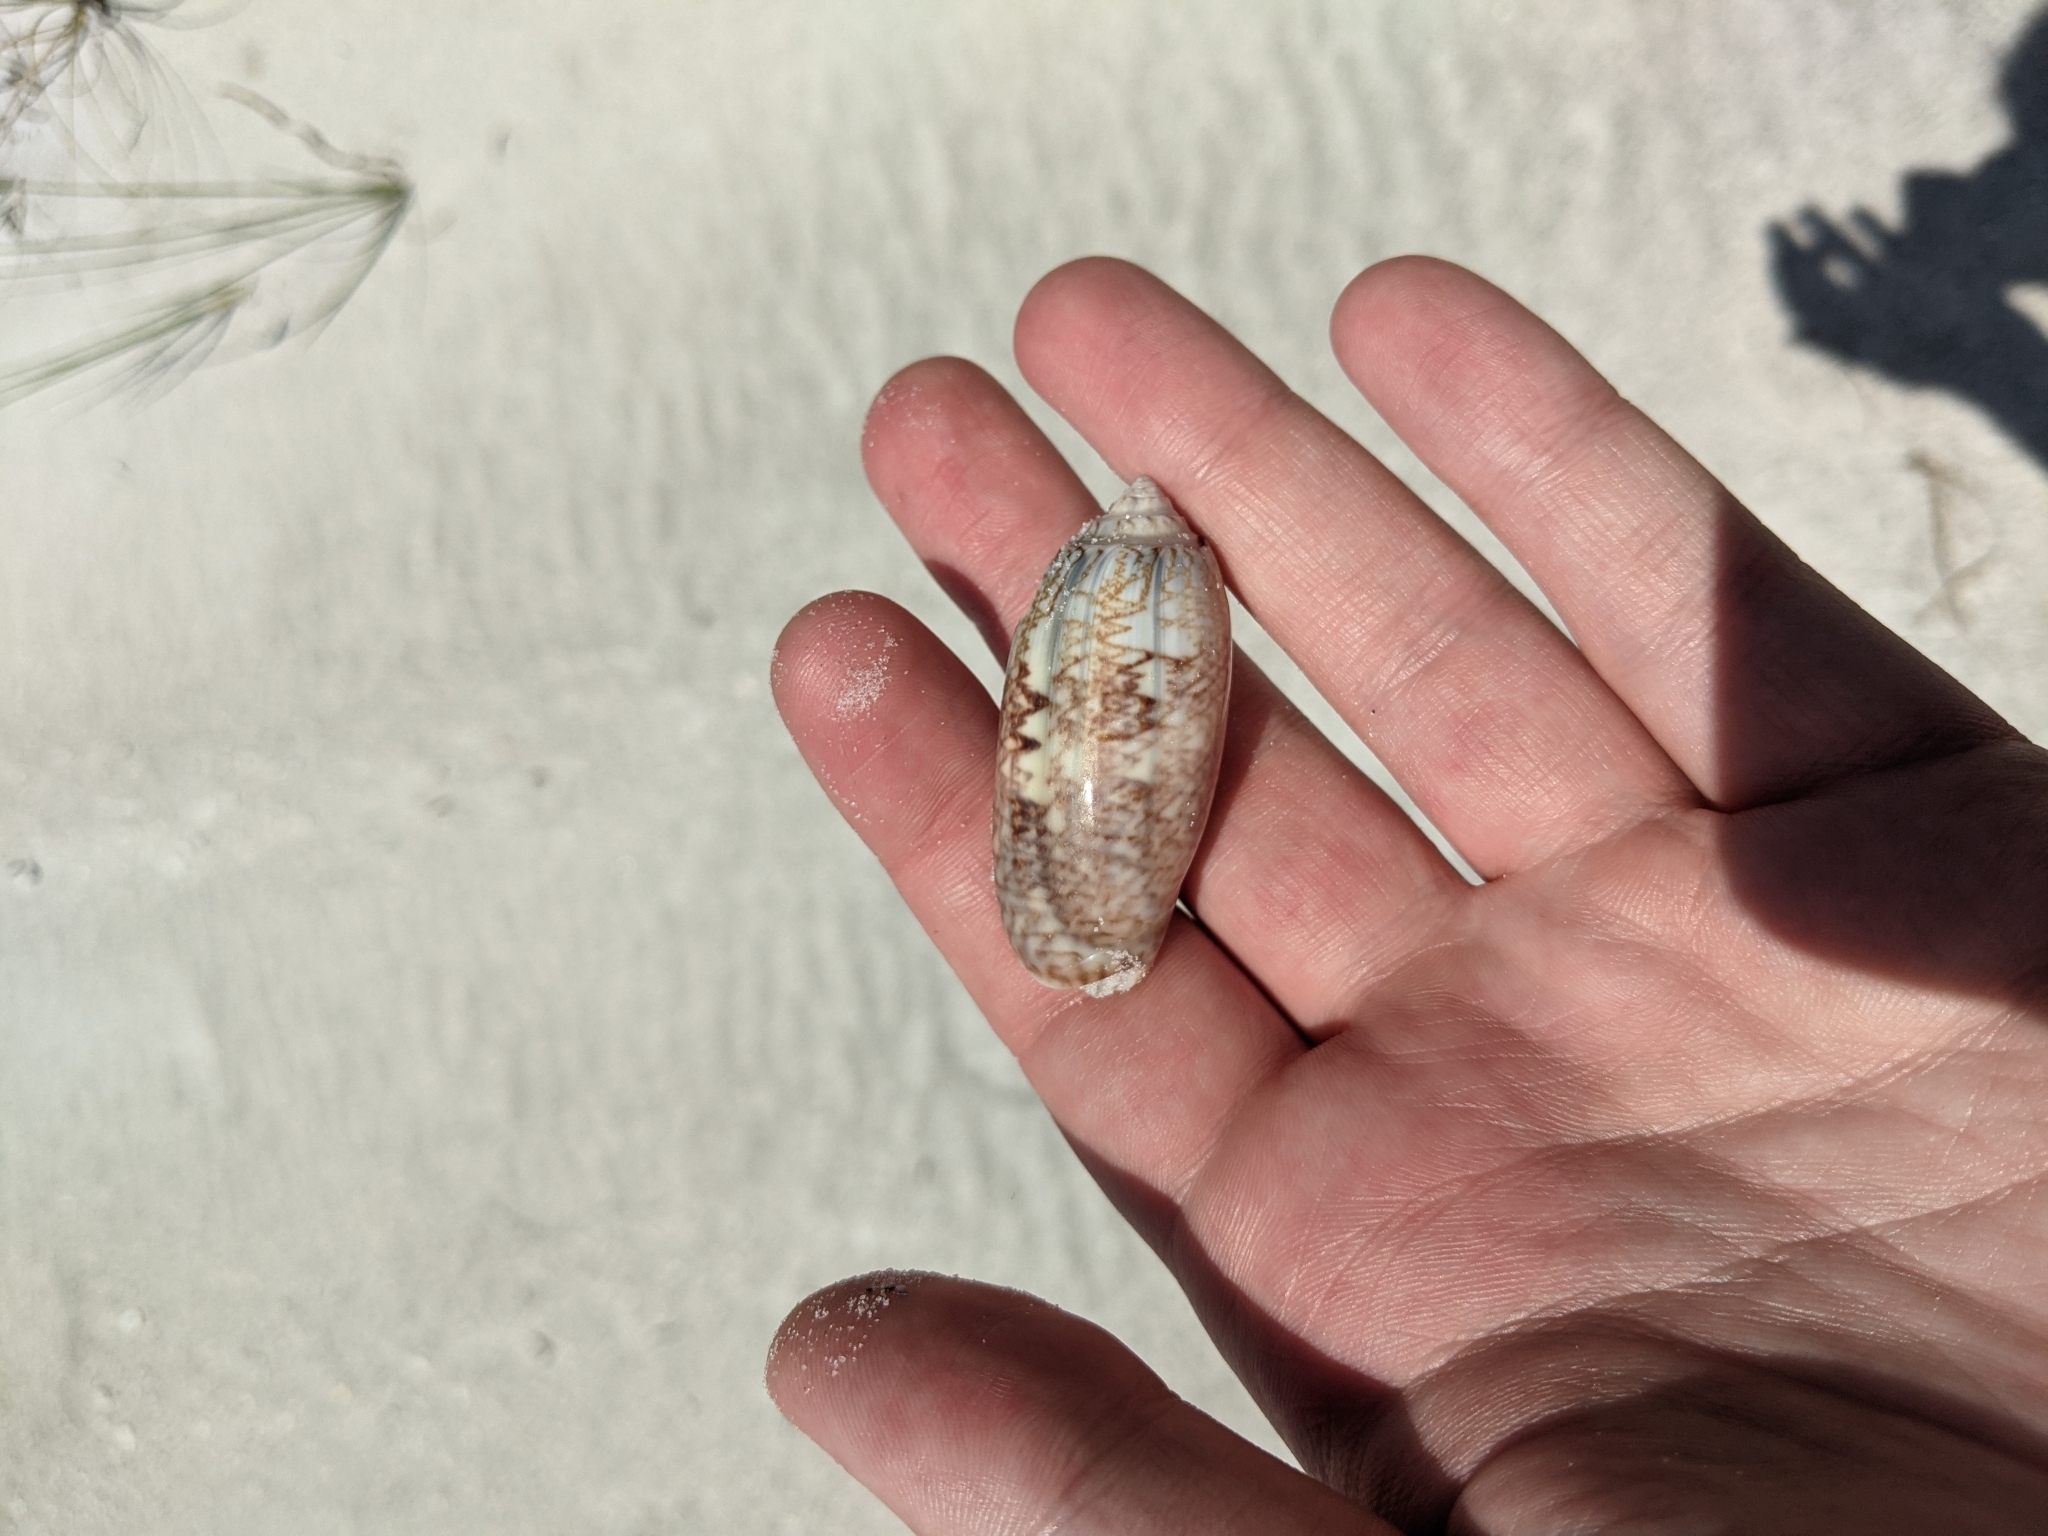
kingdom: Animalia
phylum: Mollusca
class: Gastropoda
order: Neogastropoda
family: Olividae
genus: Oliva
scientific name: Oliva sayana
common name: Lettered olive
